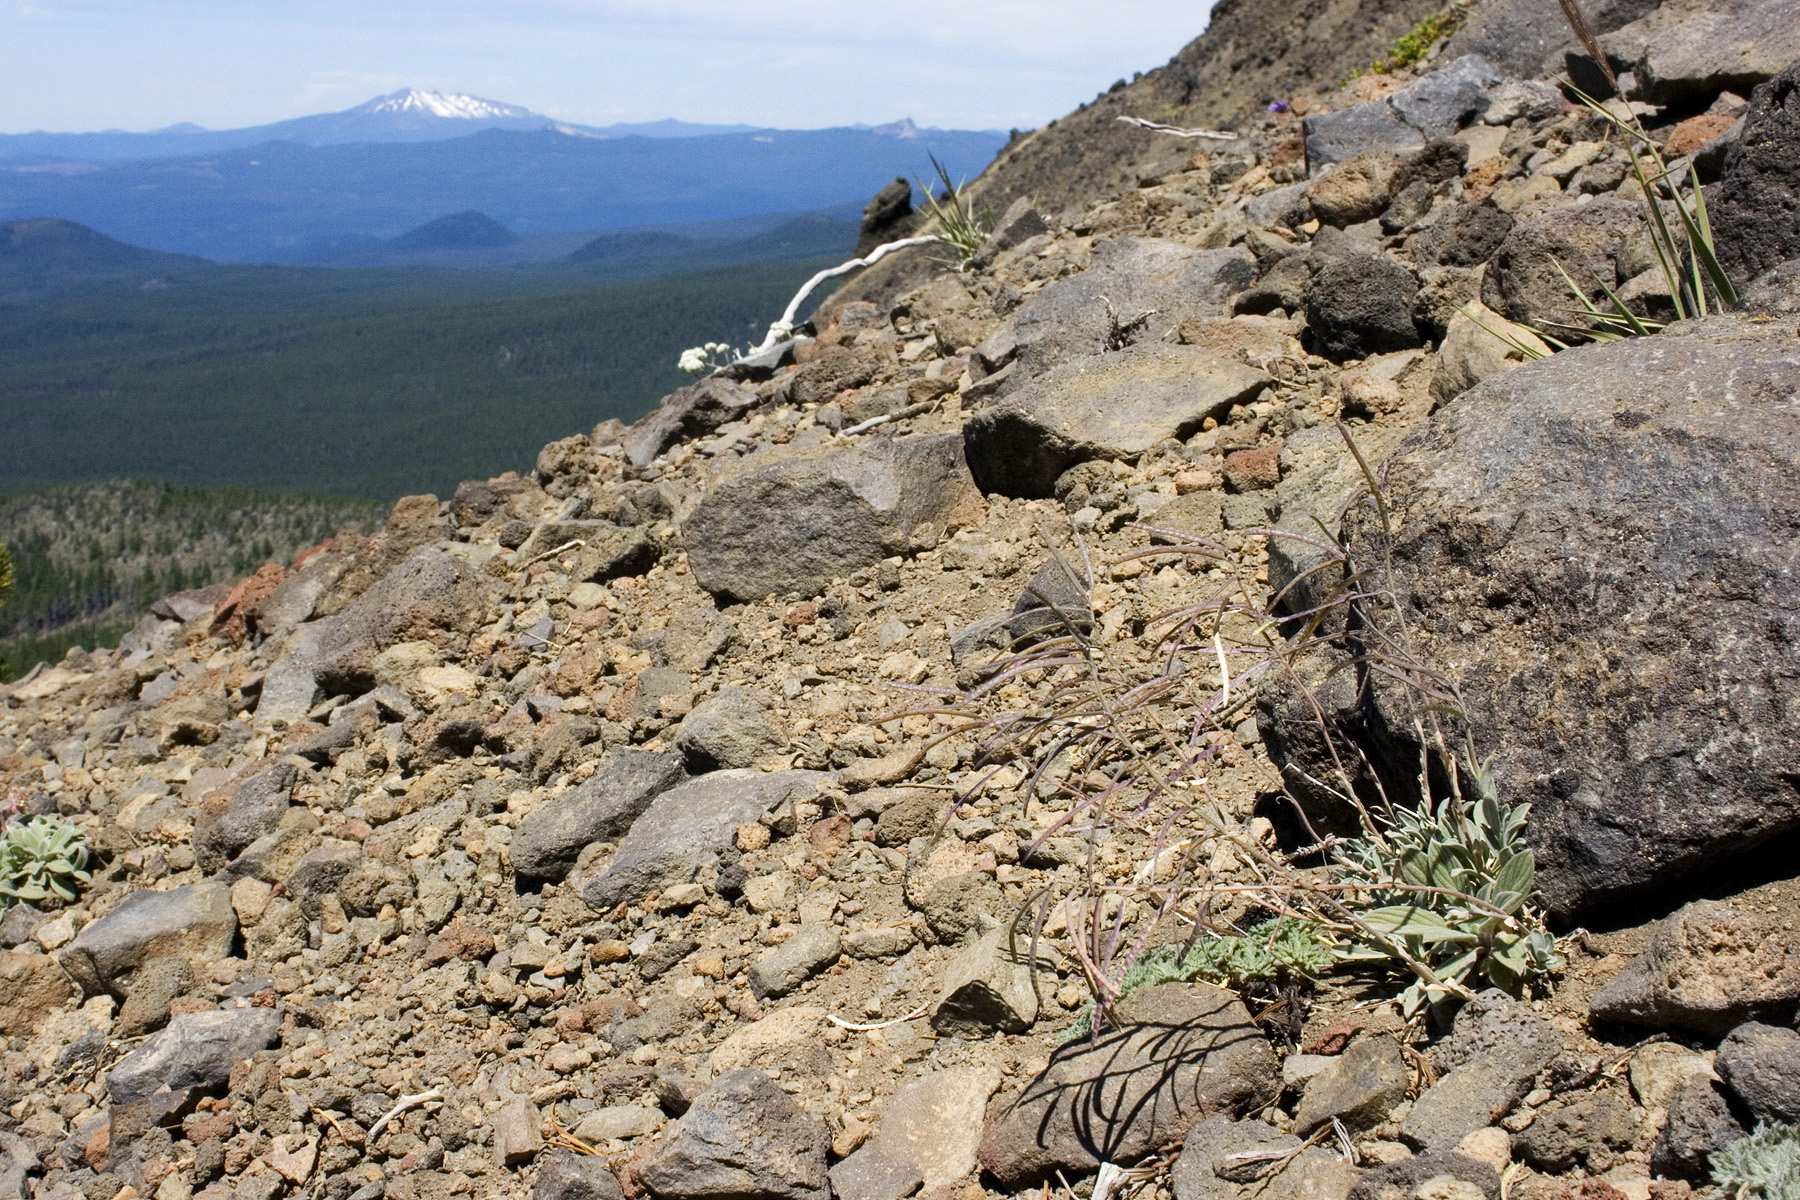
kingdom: Plantae
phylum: Tracheophyta
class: Magnoliopsida
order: Brassicales
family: Brassicaceae
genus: Boechera
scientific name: Boechera lemmonii
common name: Lemmon's rockcress
